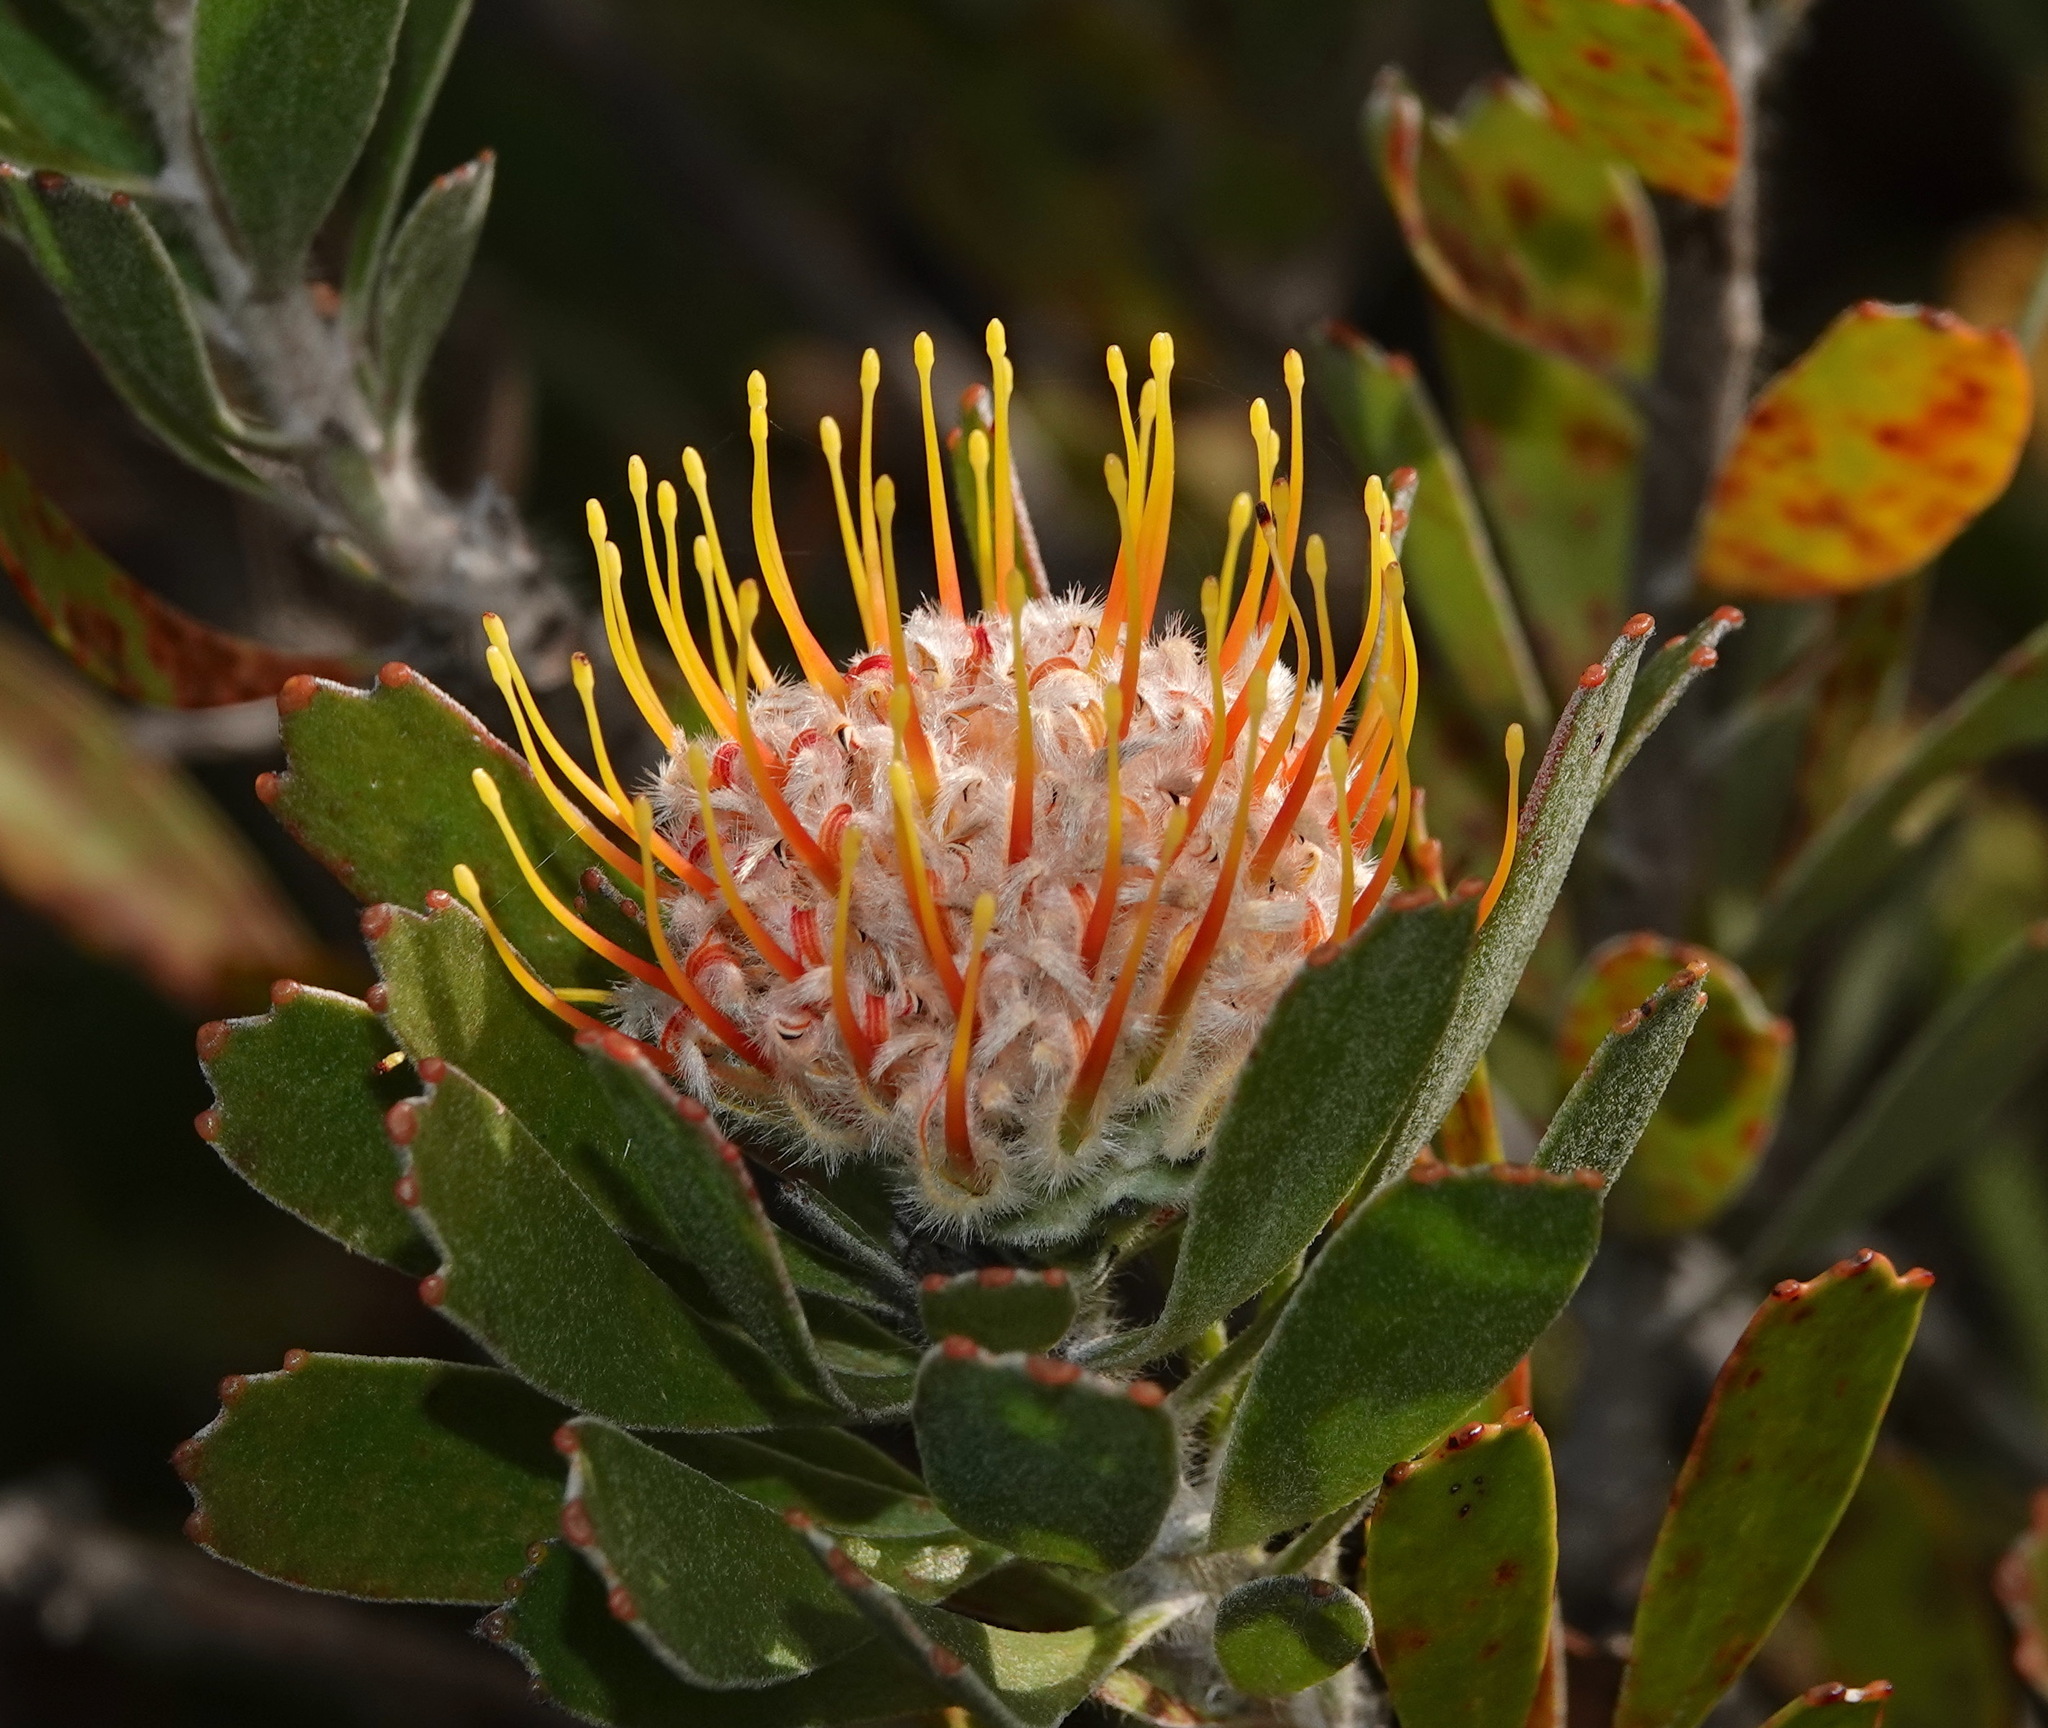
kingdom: Plantae
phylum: Tracheophyta
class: Magnoliopsida
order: Proteales
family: Proteaceae
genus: Leucospermum
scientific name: Leucospermum truncatum
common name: Limestone pincushion
